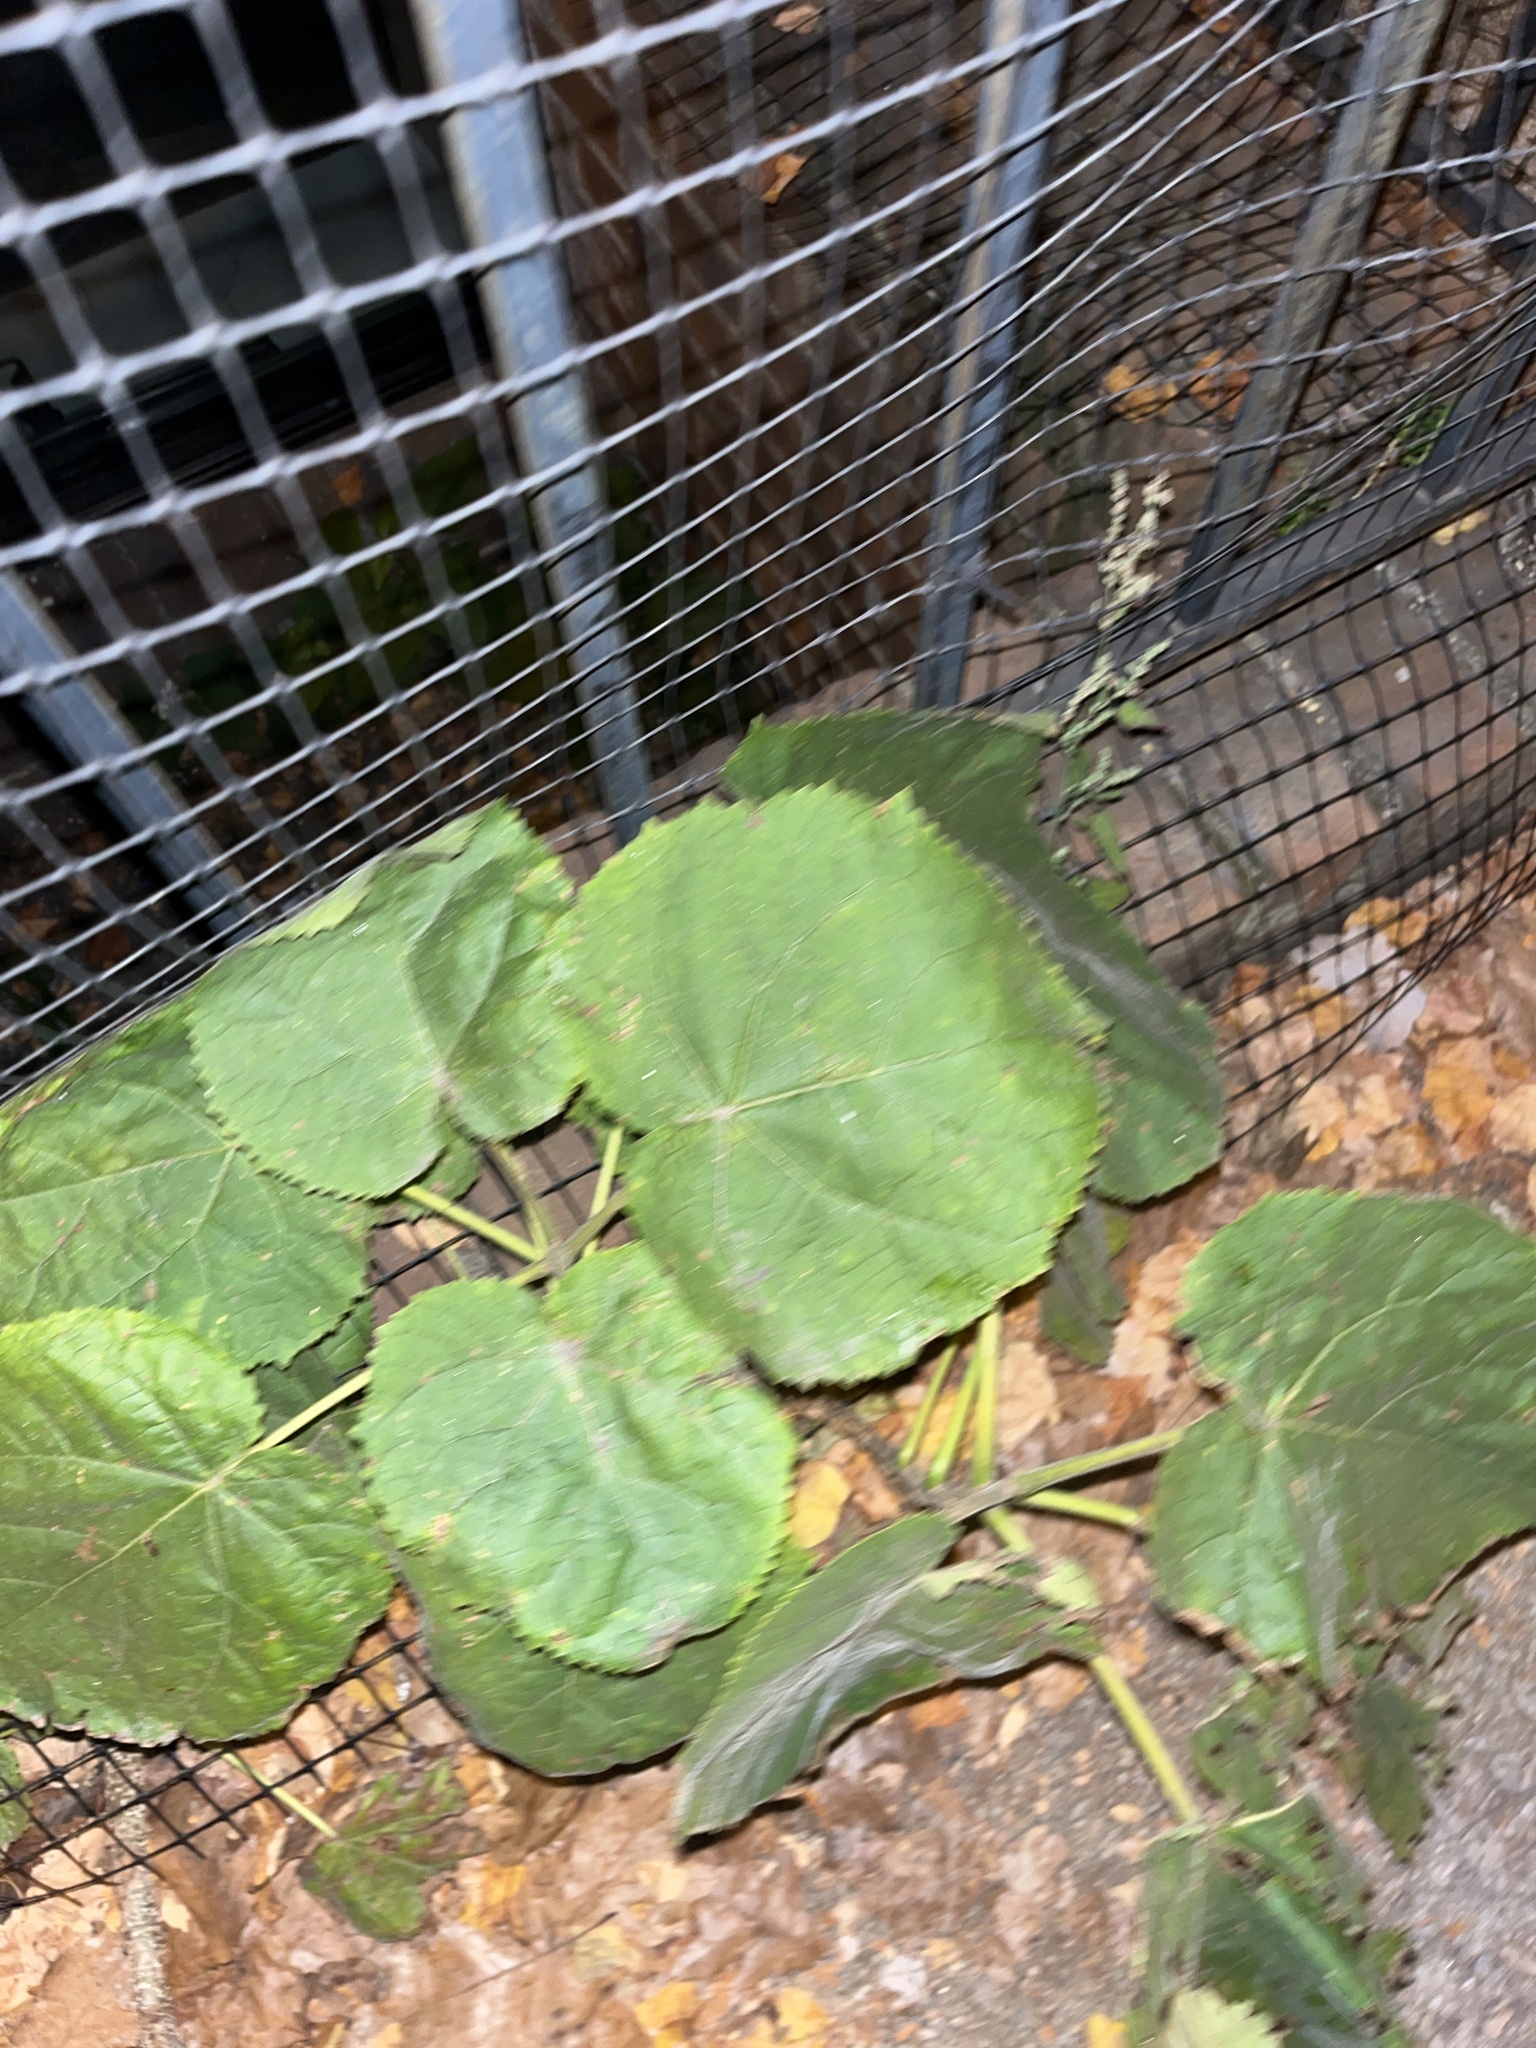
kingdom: Plantae
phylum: Tracheophyta
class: Magnoliopsida
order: Lamiales
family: Paulowniaceae
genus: Paulownia
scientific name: Paulownia tomentosa
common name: Foxglove-tree
